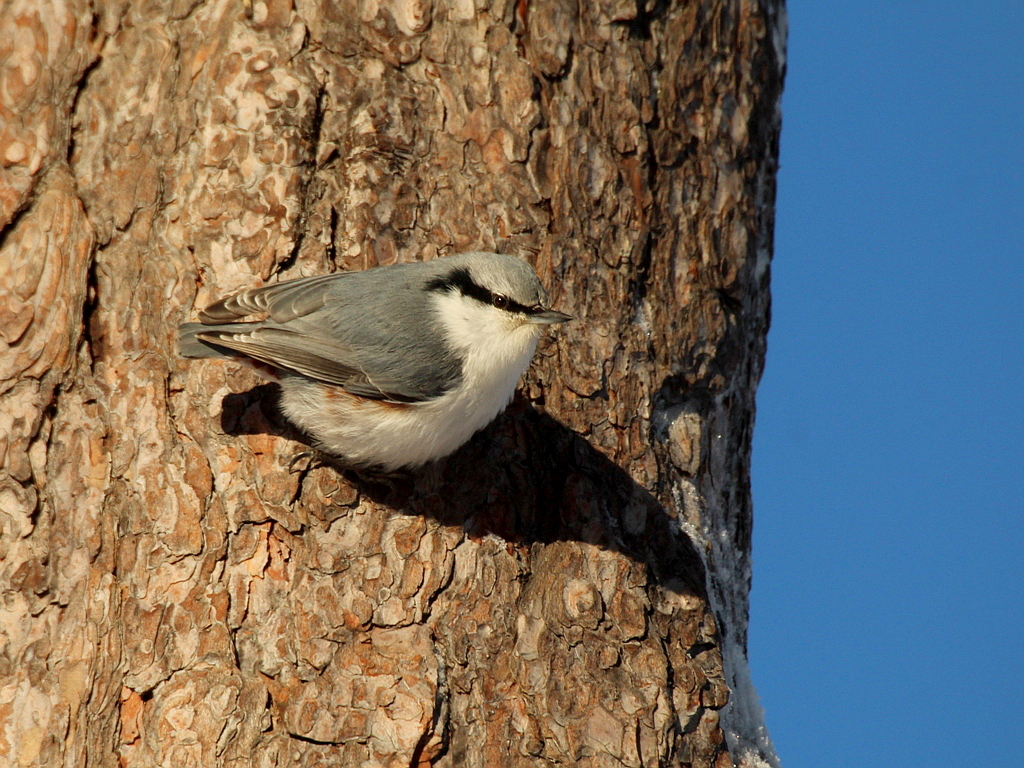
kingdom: Animalia
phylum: Chordata
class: Aves
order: Passeriformes
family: Sittidae
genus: Sitta
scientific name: Sitta europaea
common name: Eurasian nuthatch
